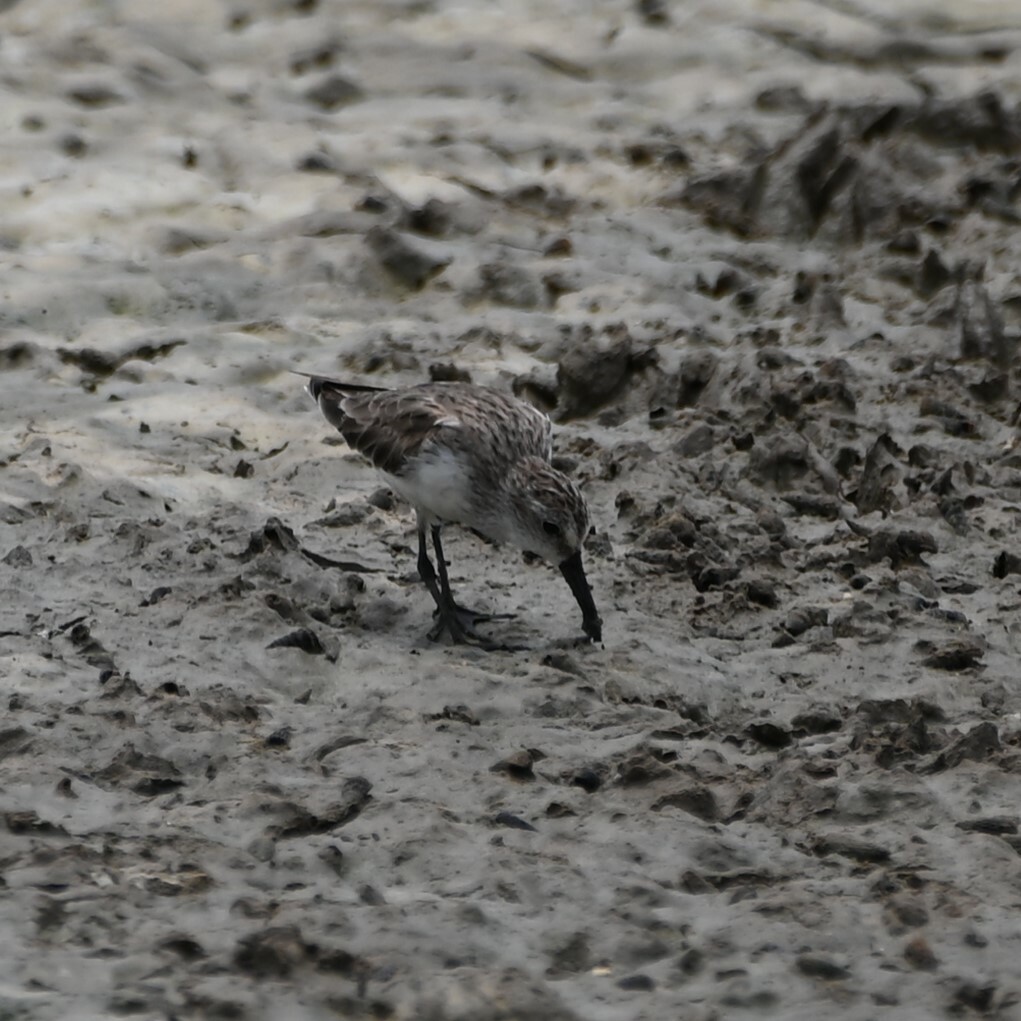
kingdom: Animalia
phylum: Chordata
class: Aves
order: Charadriiformes
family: Scolopacidae
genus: Calidris
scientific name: Calidris mauri
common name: Western sandpiper
